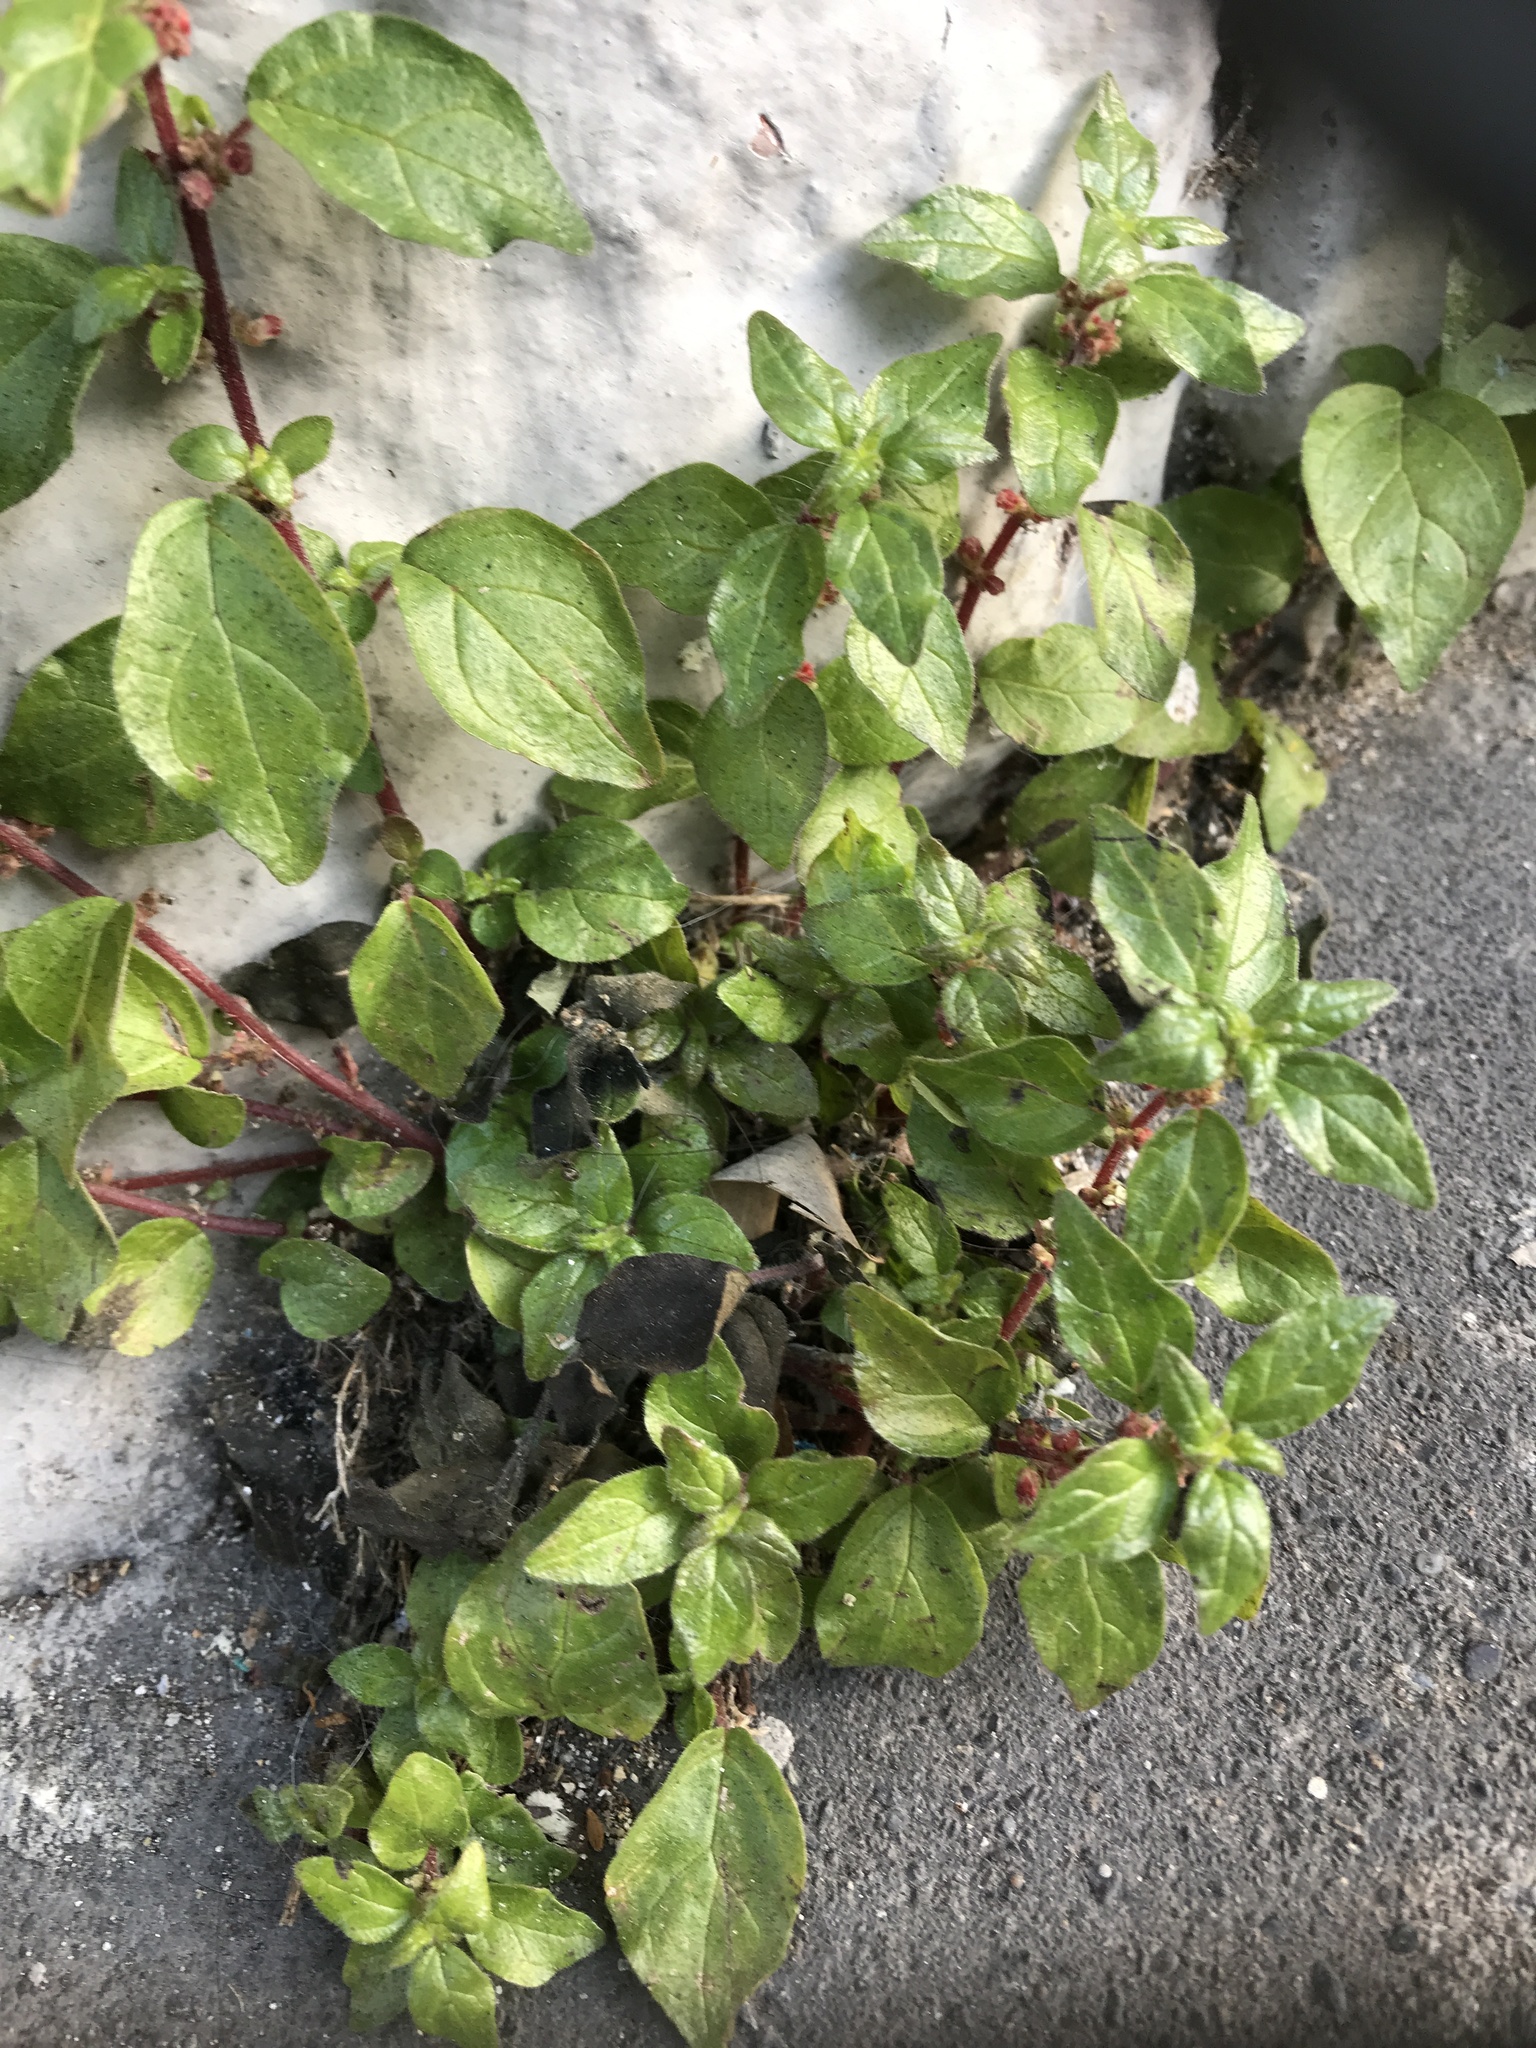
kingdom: Plantae
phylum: Tracheophyta
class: Magnoliopsida
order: Rosales
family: Urticaceae
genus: Parietaria
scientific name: Parietaria judaica
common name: Pellitory-of-the-wall
